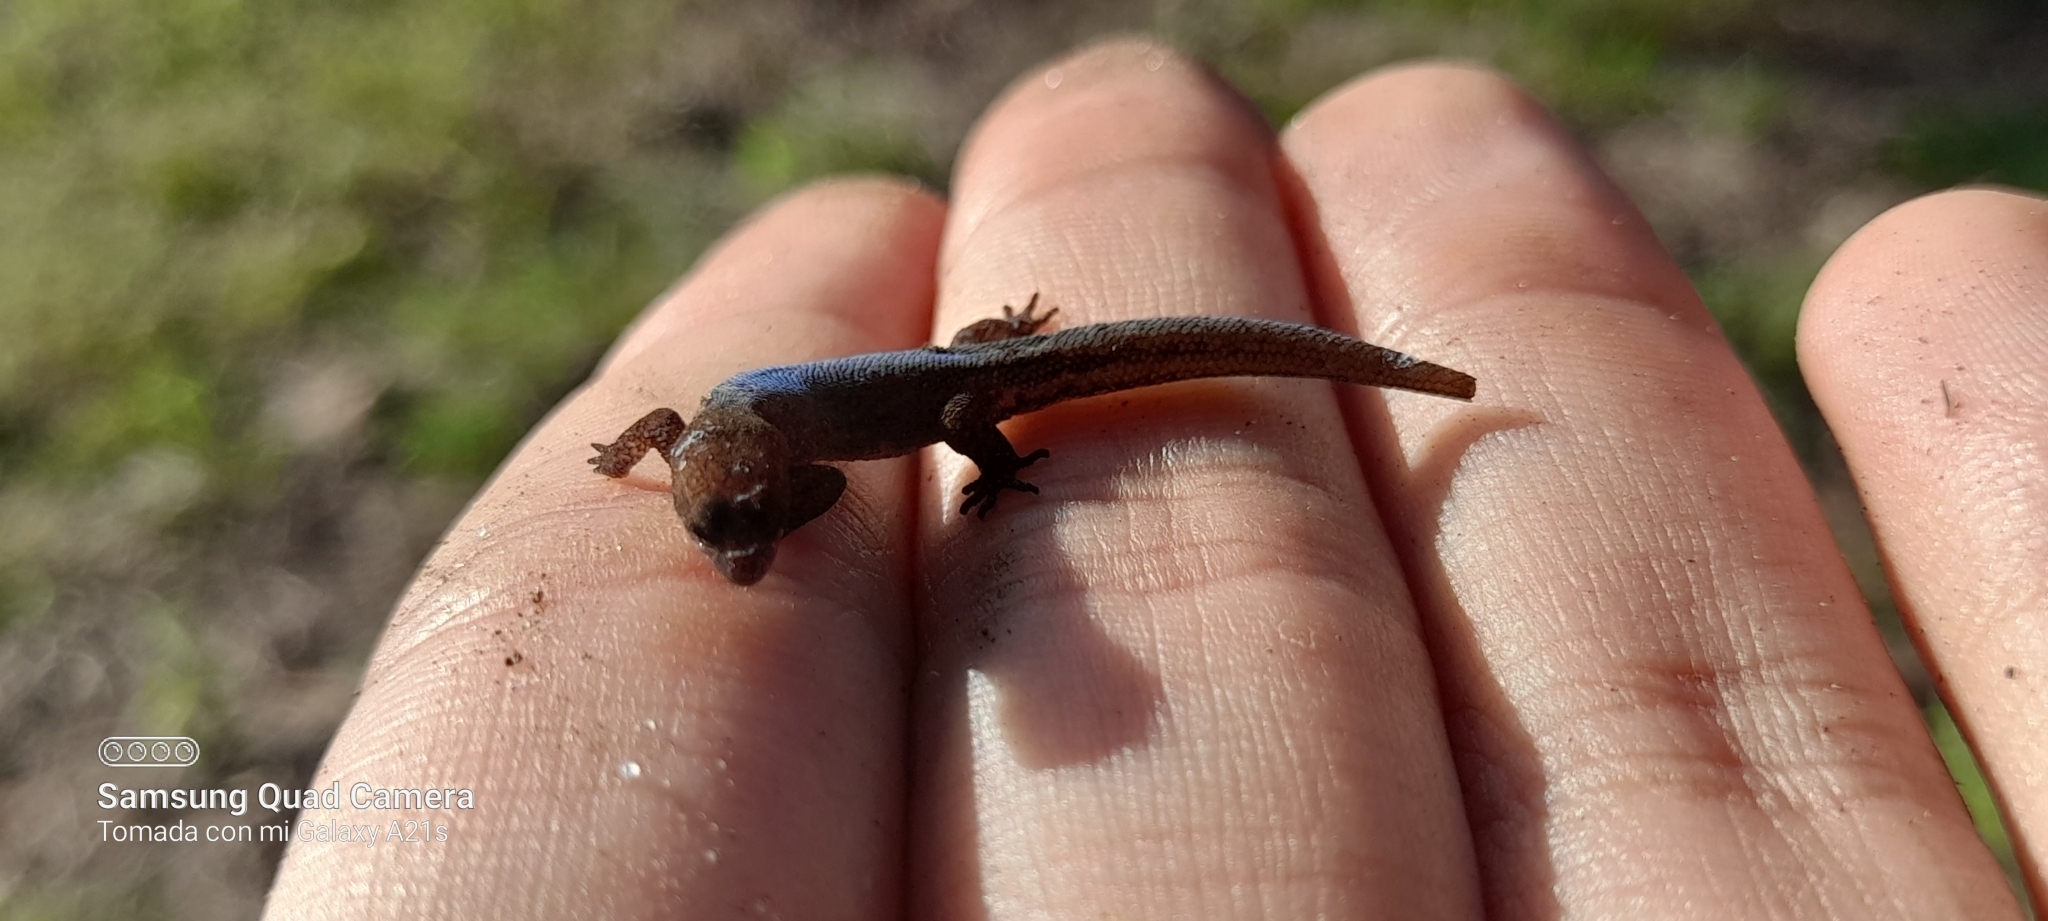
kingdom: Animalia
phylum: Chordata
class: Squamata
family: Sphaerodactylidae
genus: Lepidoblepharis
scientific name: Lepidoblepharis sanctaemartae
